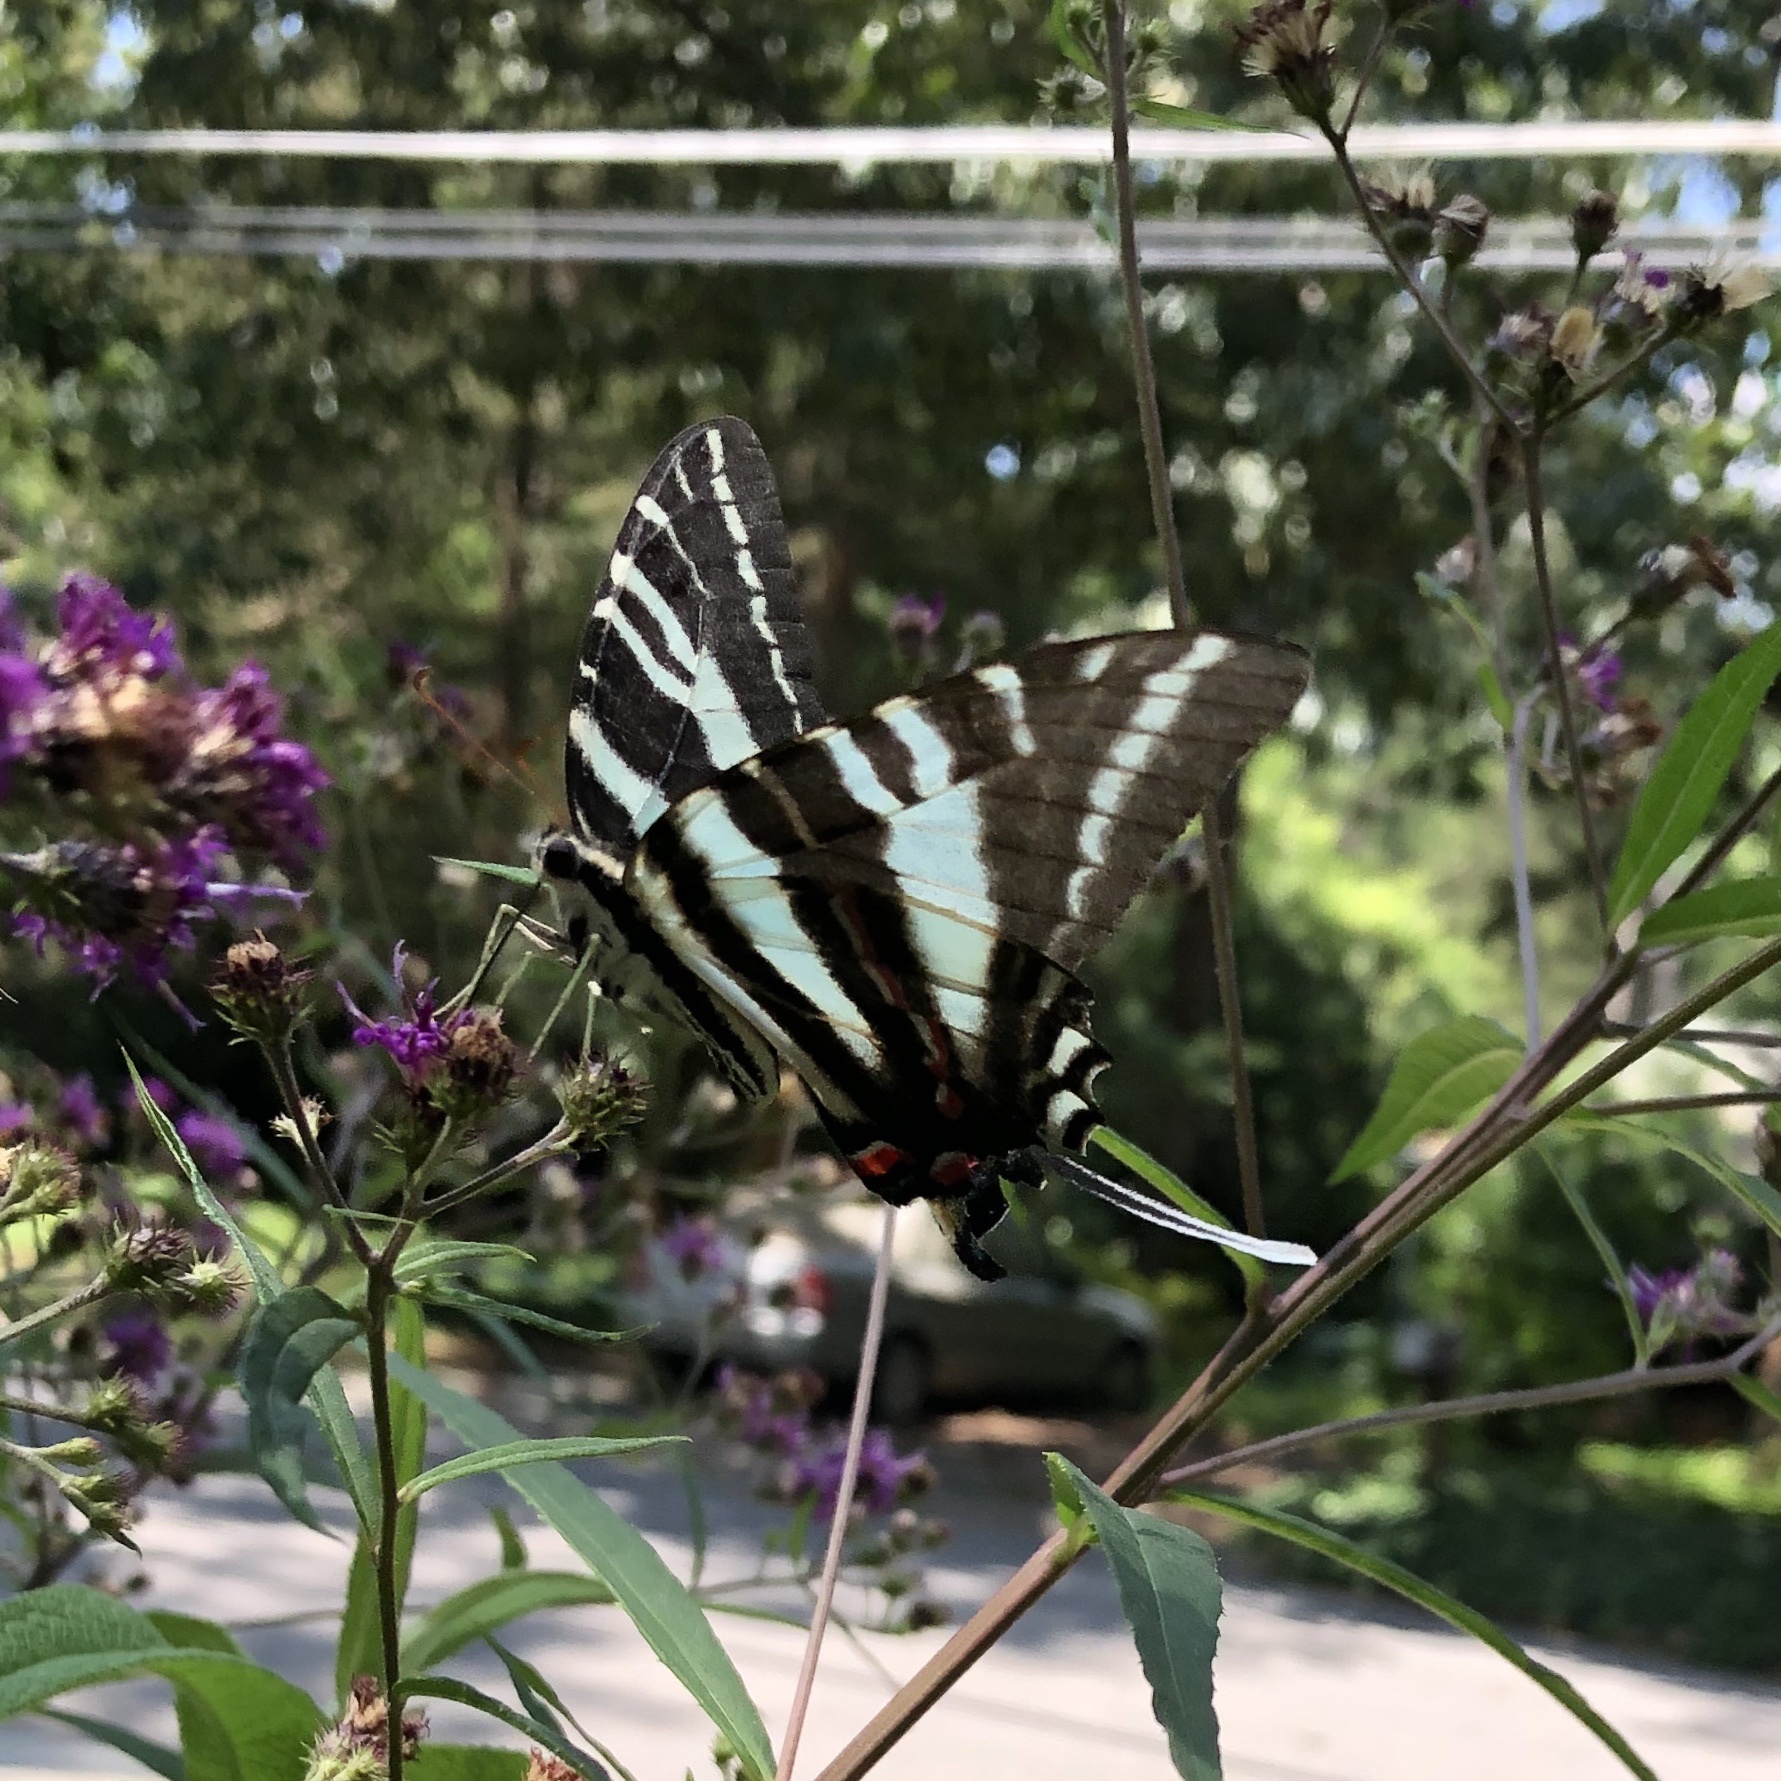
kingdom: Animalia
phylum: Arthropoda
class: Insecta
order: Lepidoptera
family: Papilionidae
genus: Protographium
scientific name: Protographium marcellus
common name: Zebra swallowtail
